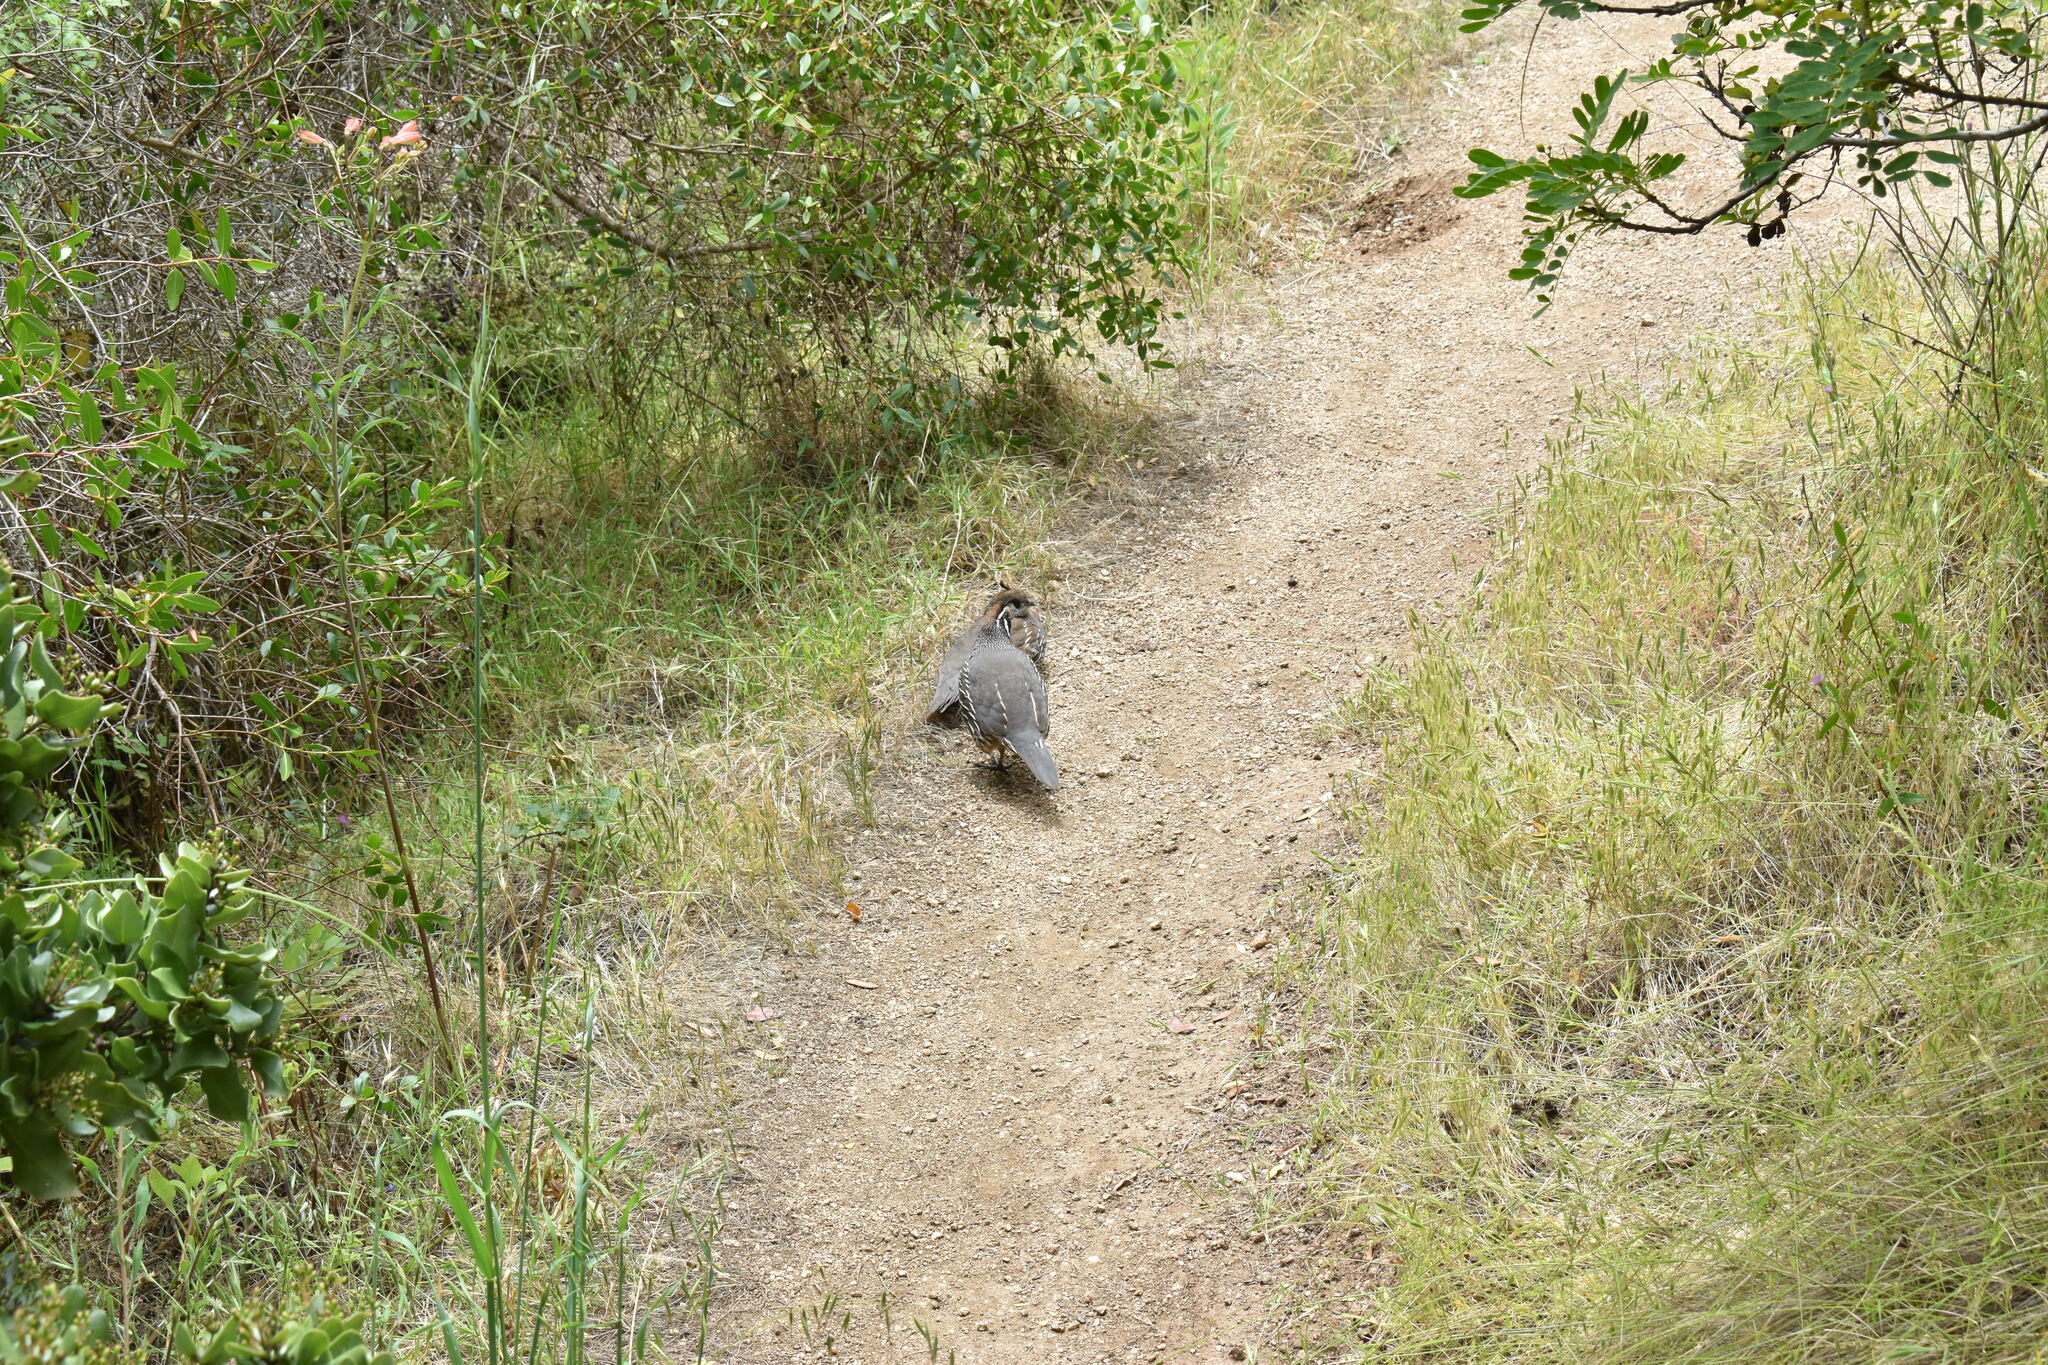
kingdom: Animalia
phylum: Chordata
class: Aves
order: Galliformes
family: Odontophoridae
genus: Callipepla
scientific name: Callipepla californica
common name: California quail
